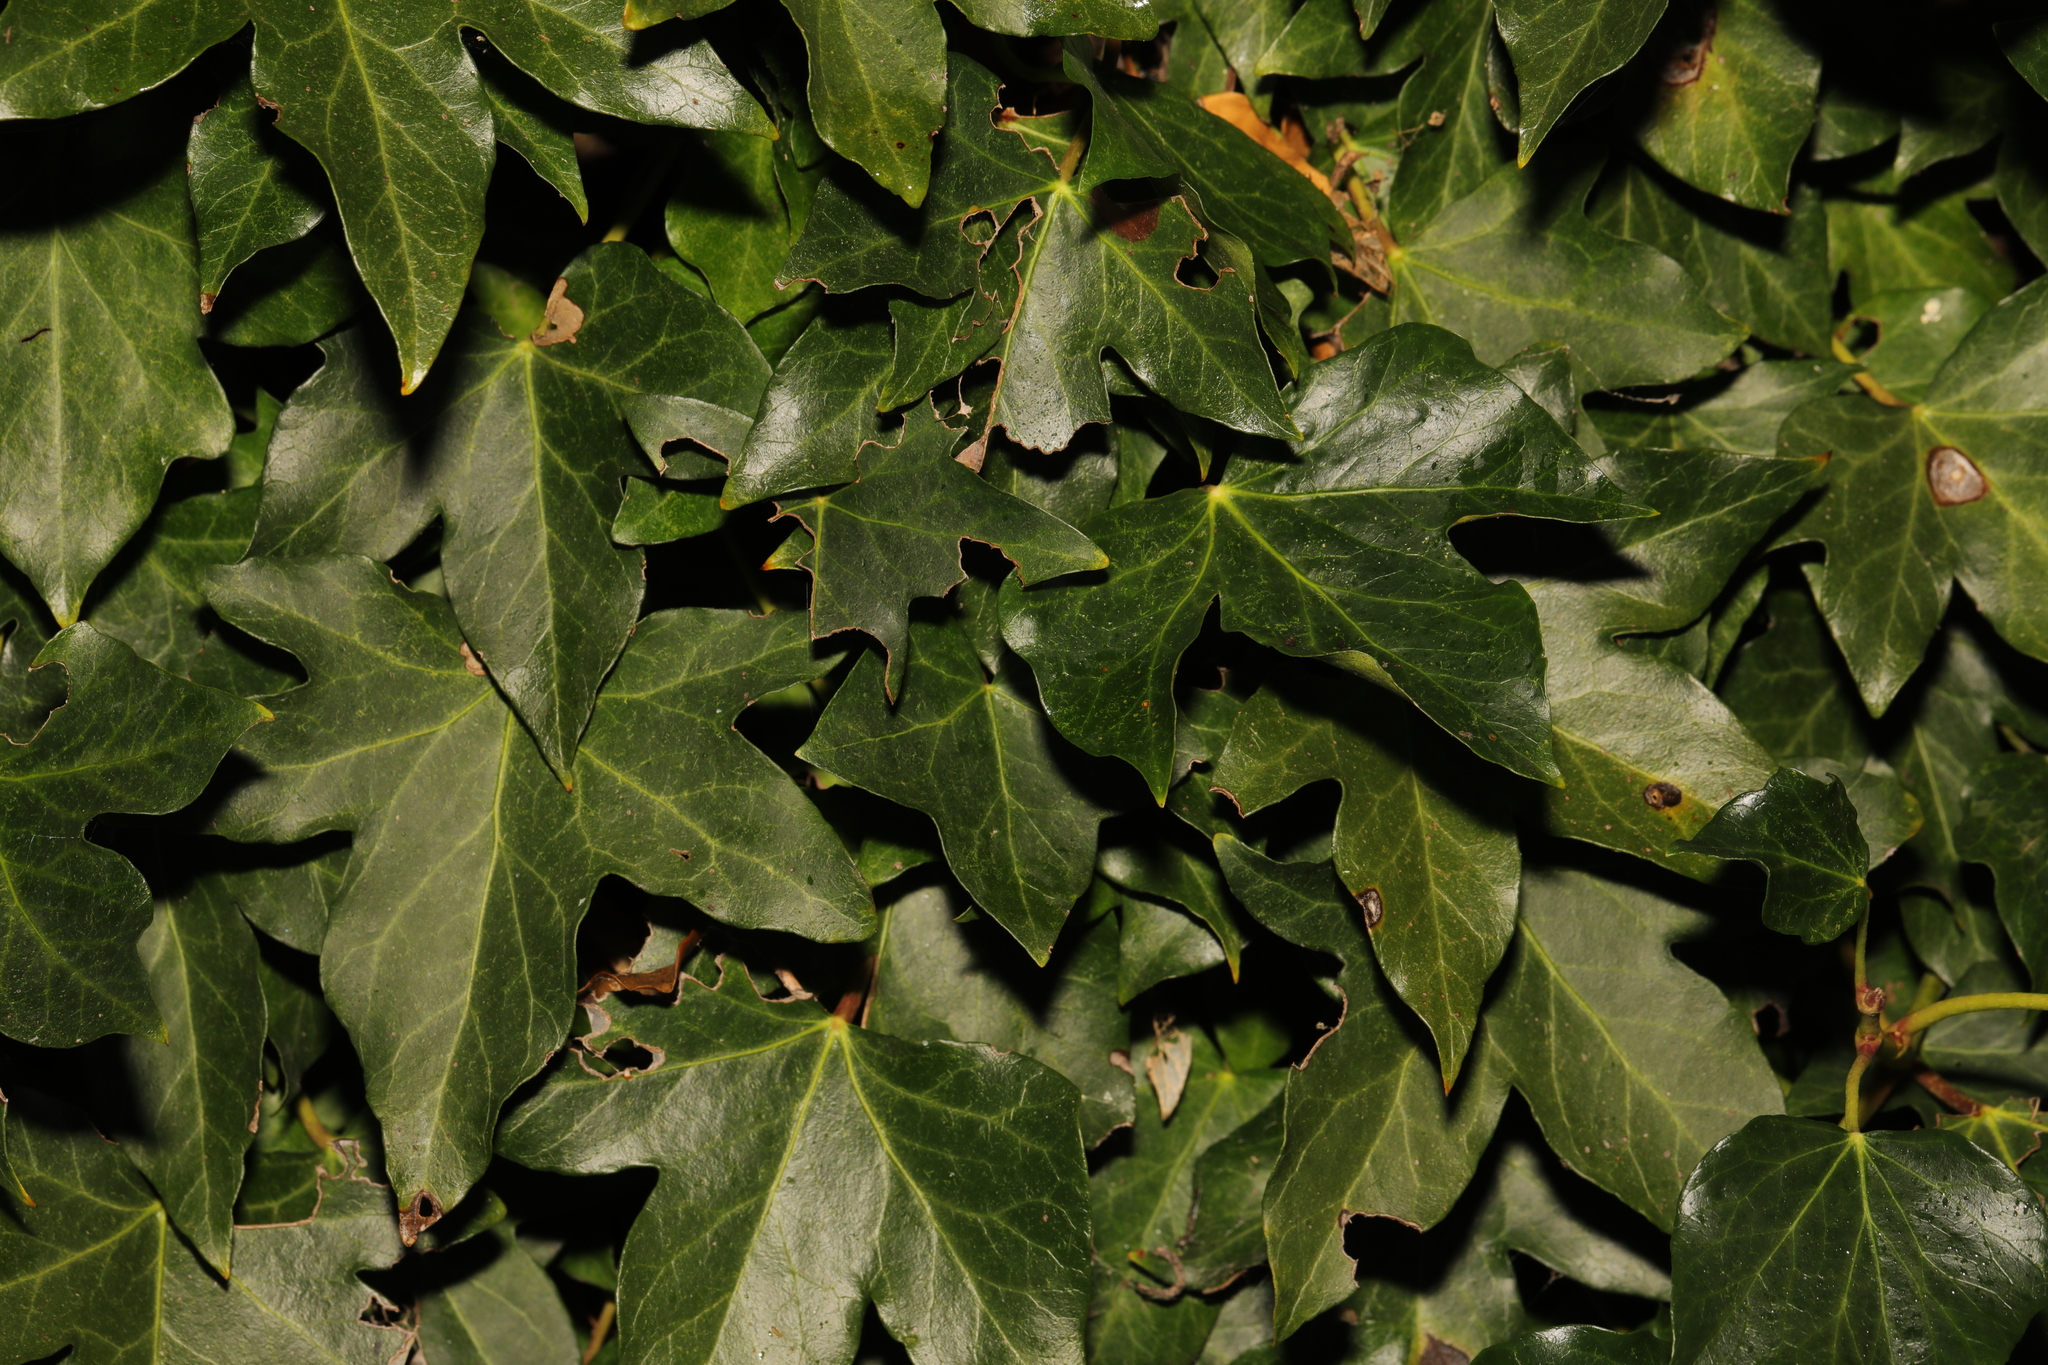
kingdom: Plantae
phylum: Tracheophyta
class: Magnoliopsida
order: Apiales
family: Araliaceae
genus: Hedera
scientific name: Hedera helix
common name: Ivy
